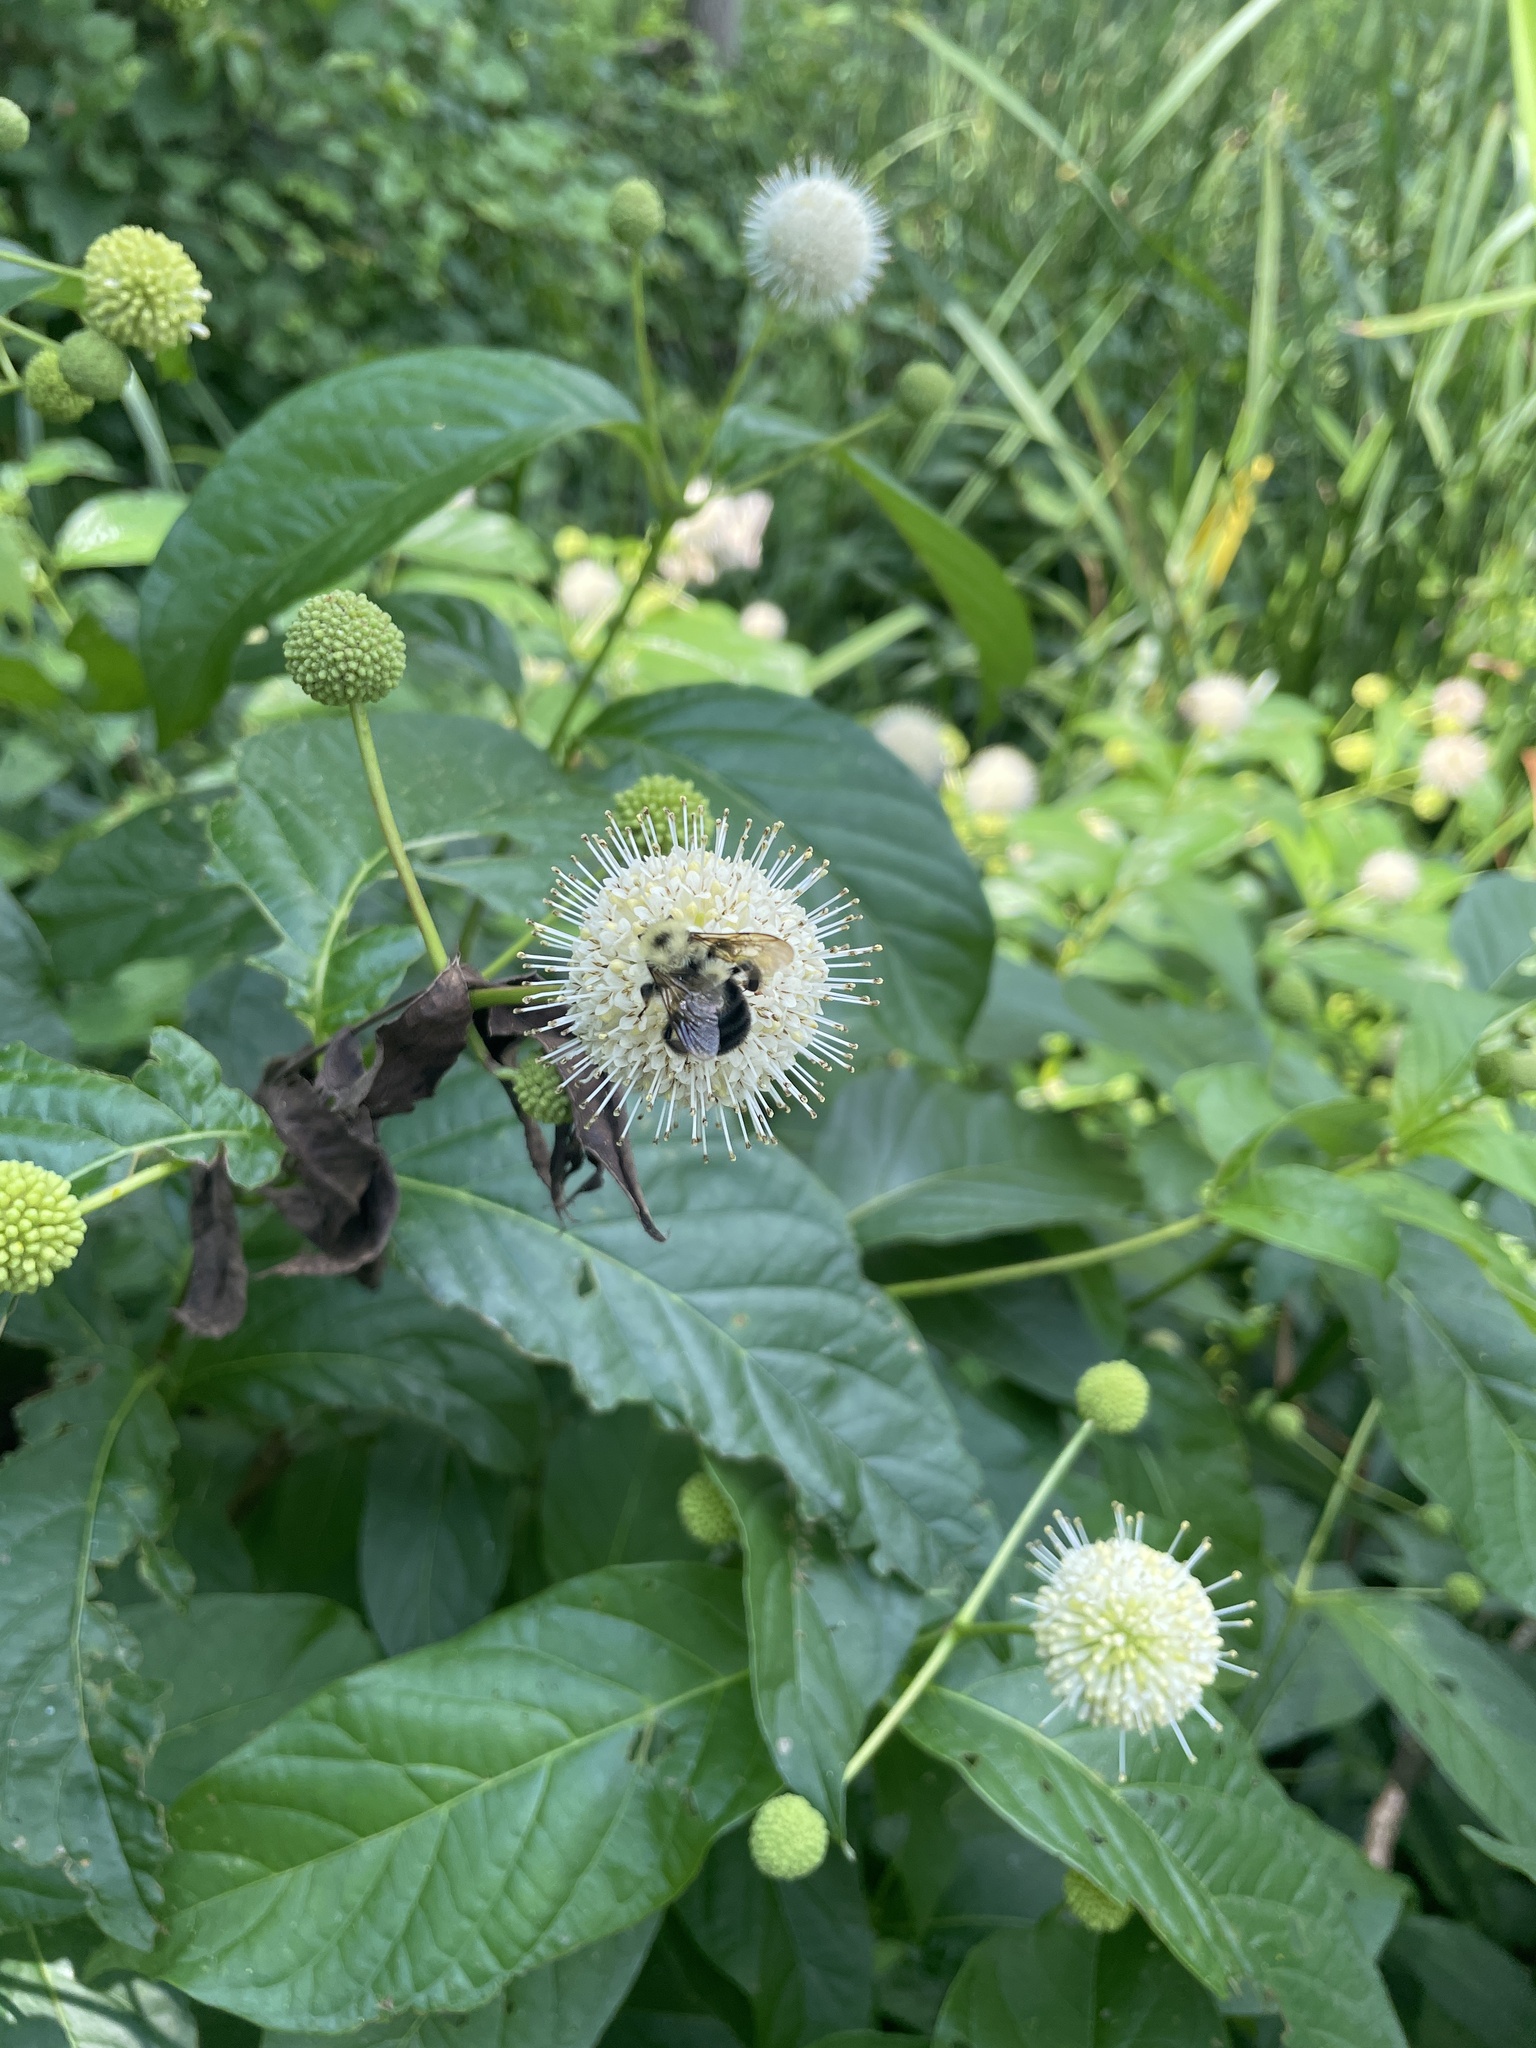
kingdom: Animalia
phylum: Arthropoda
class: Insecta
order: Hymenoptera
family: Apidae
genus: Bombus
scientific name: Bombus bimaculatus
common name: Two-spotted bumble bee
